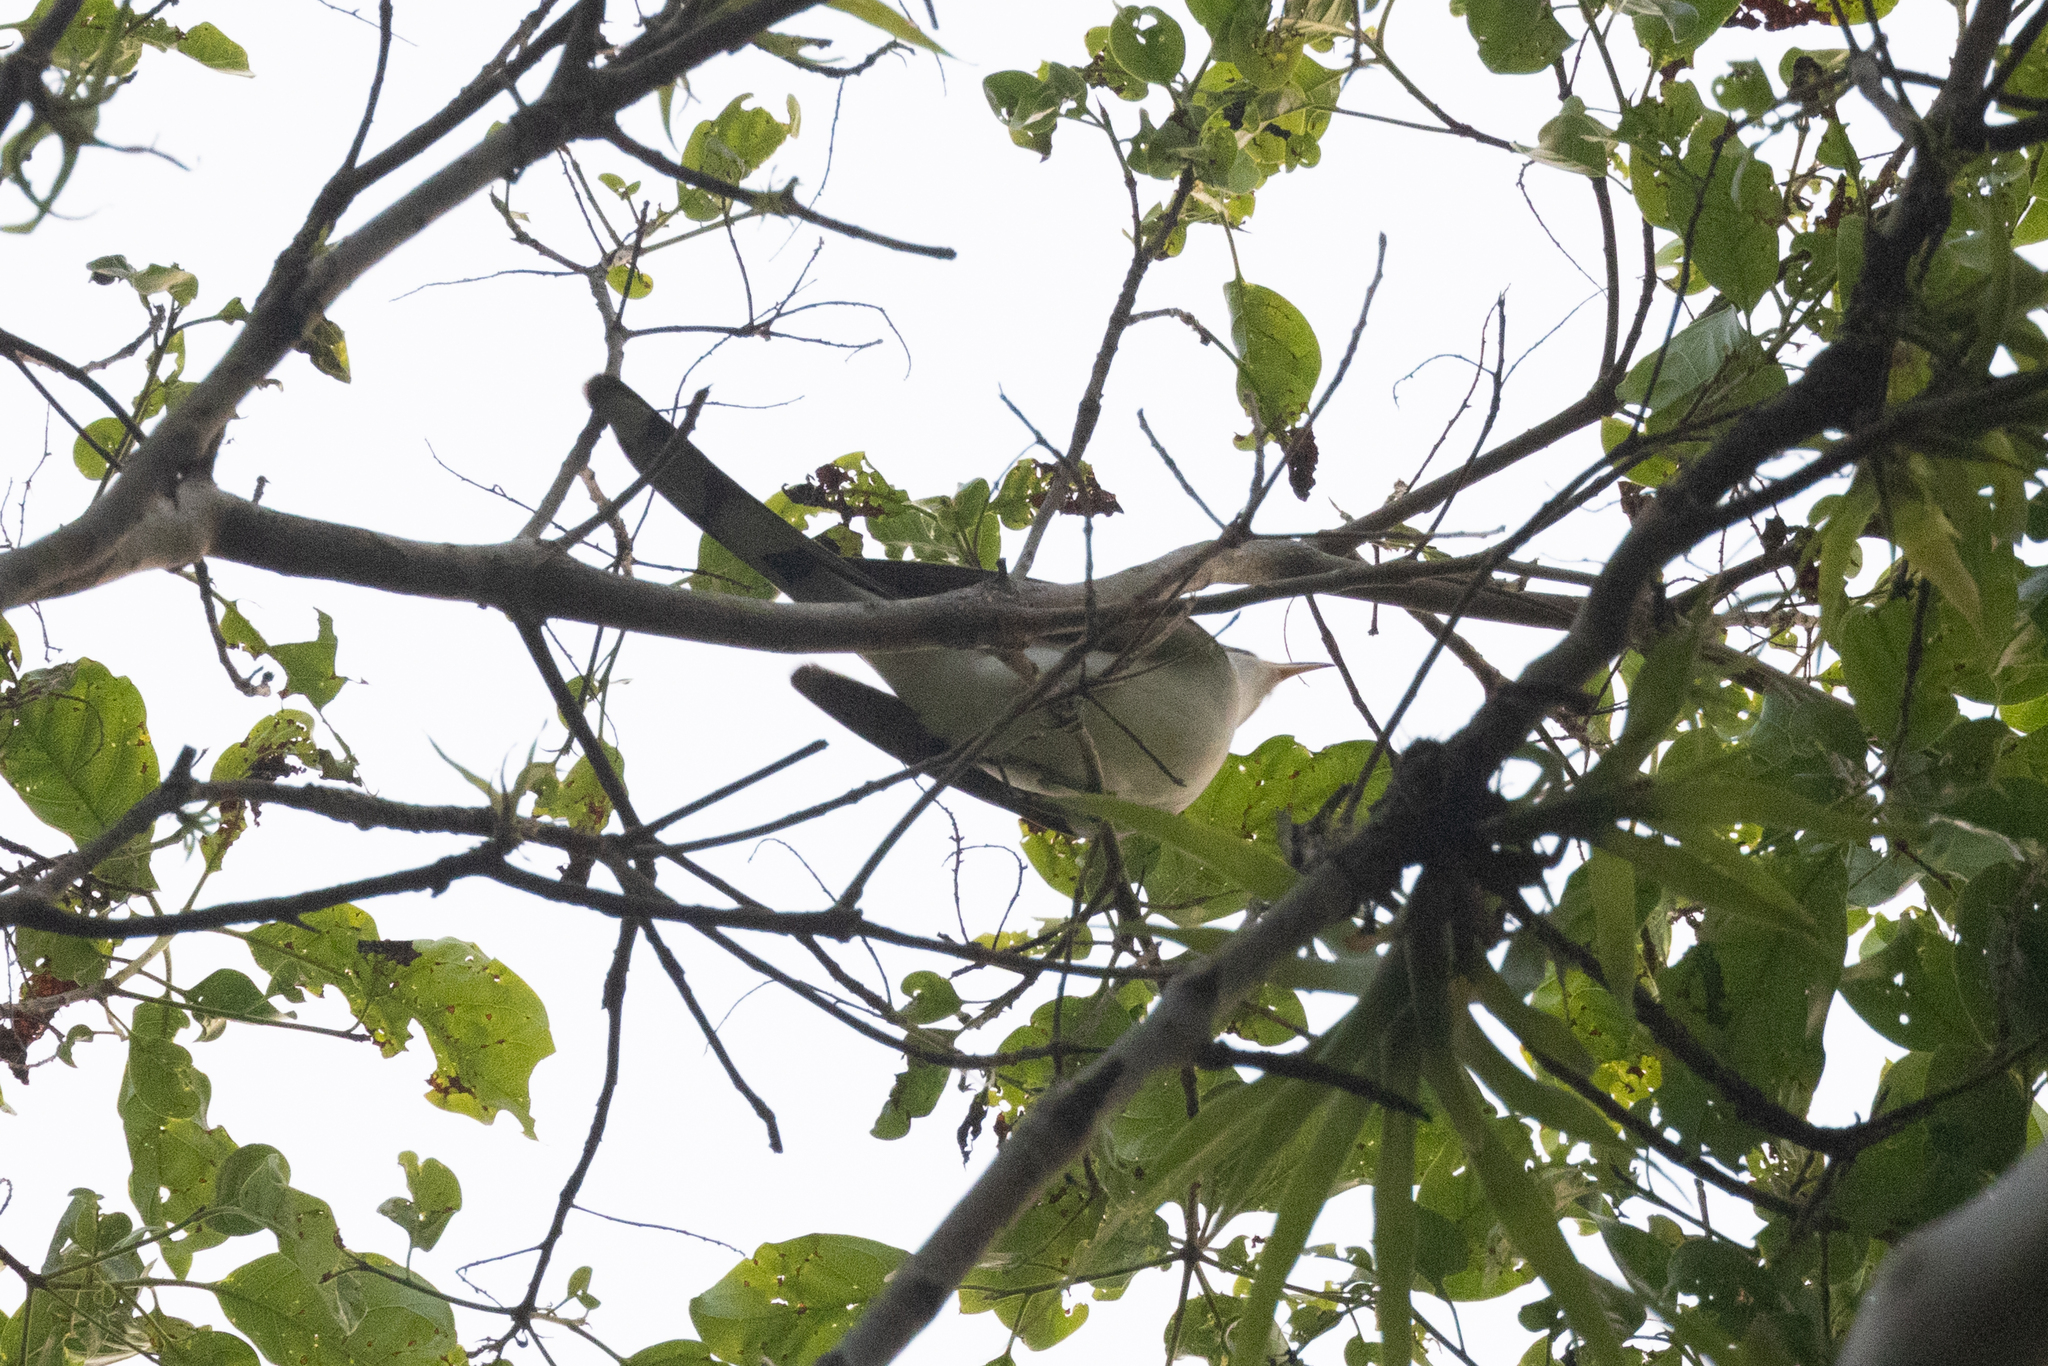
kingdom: Animalia
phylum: Chordata
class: Aves
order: Cuculiformes
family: Cuculidae
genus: Coccyzus
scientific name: Coccyzus americanus
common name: Yellow-billed cuckoo
